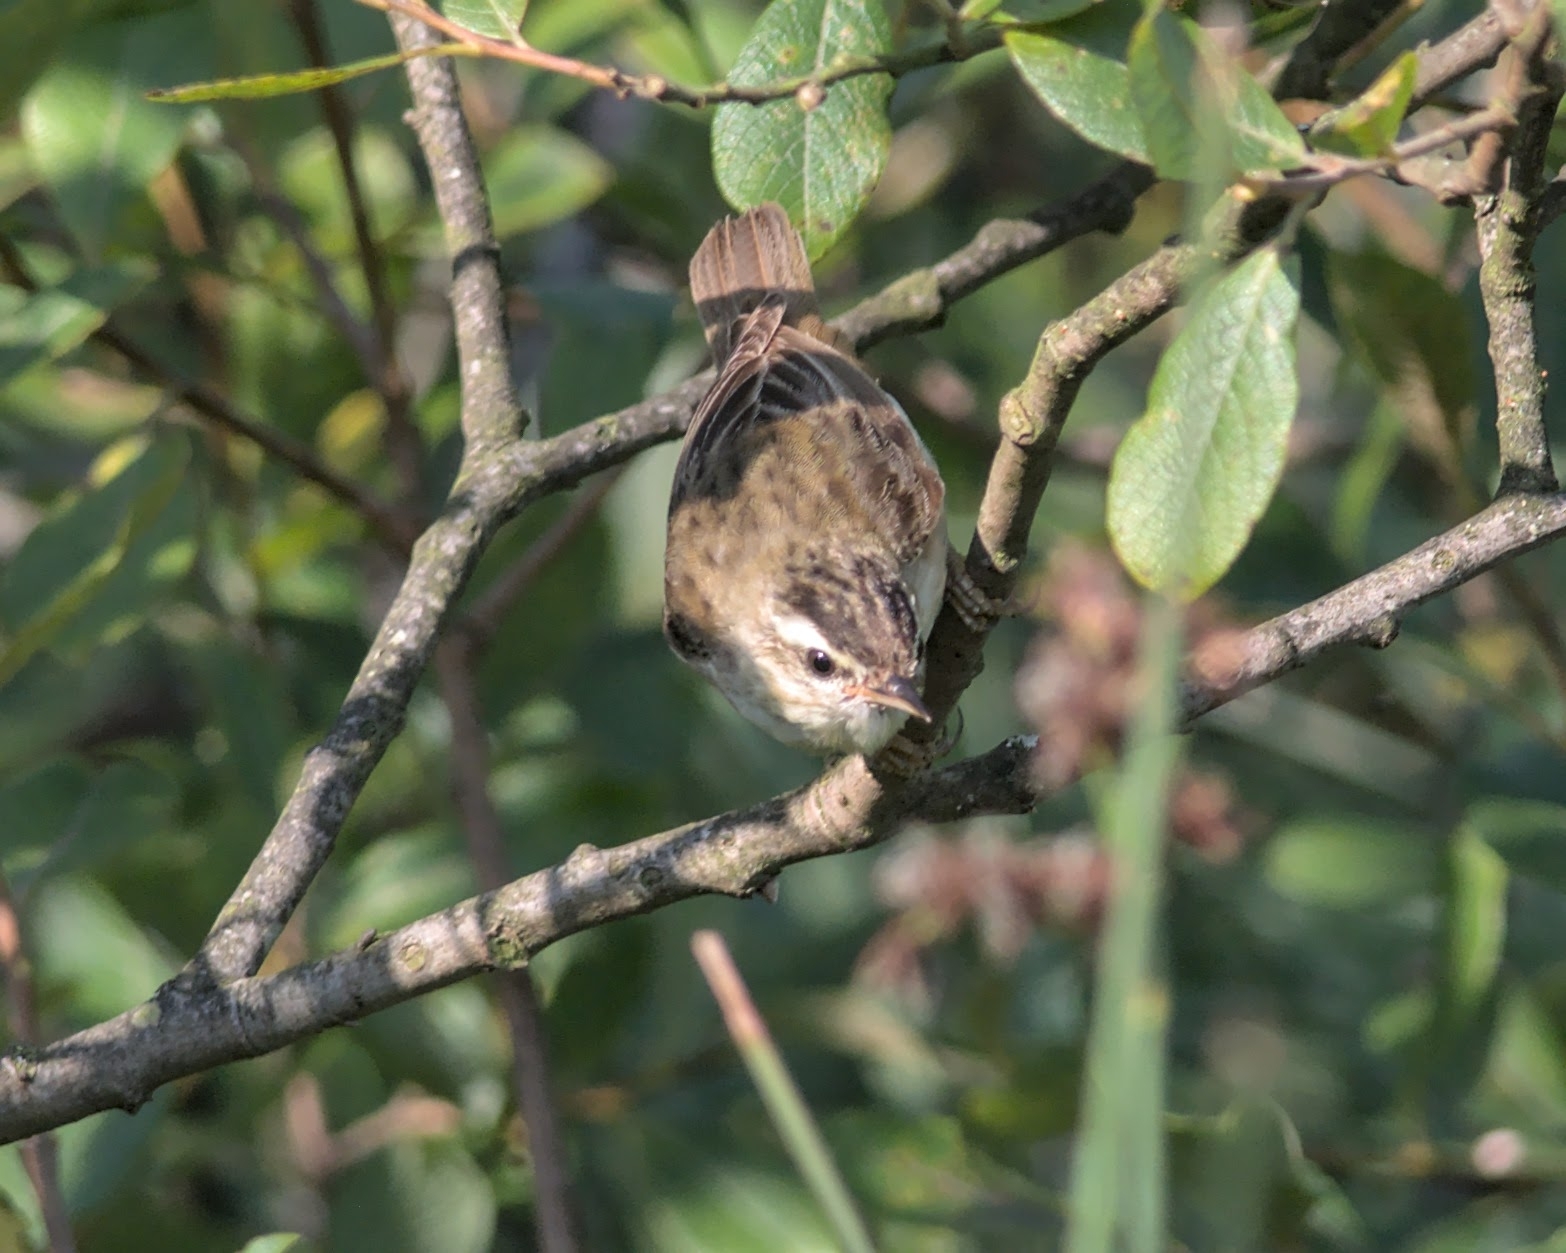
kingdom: Animalia
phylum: Chordata
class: Aves
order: Passeriformes
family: Acrocephalidae
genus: Acrocephalus
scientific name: Acrocephalus schoenobaenus
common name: Sedge warbler
